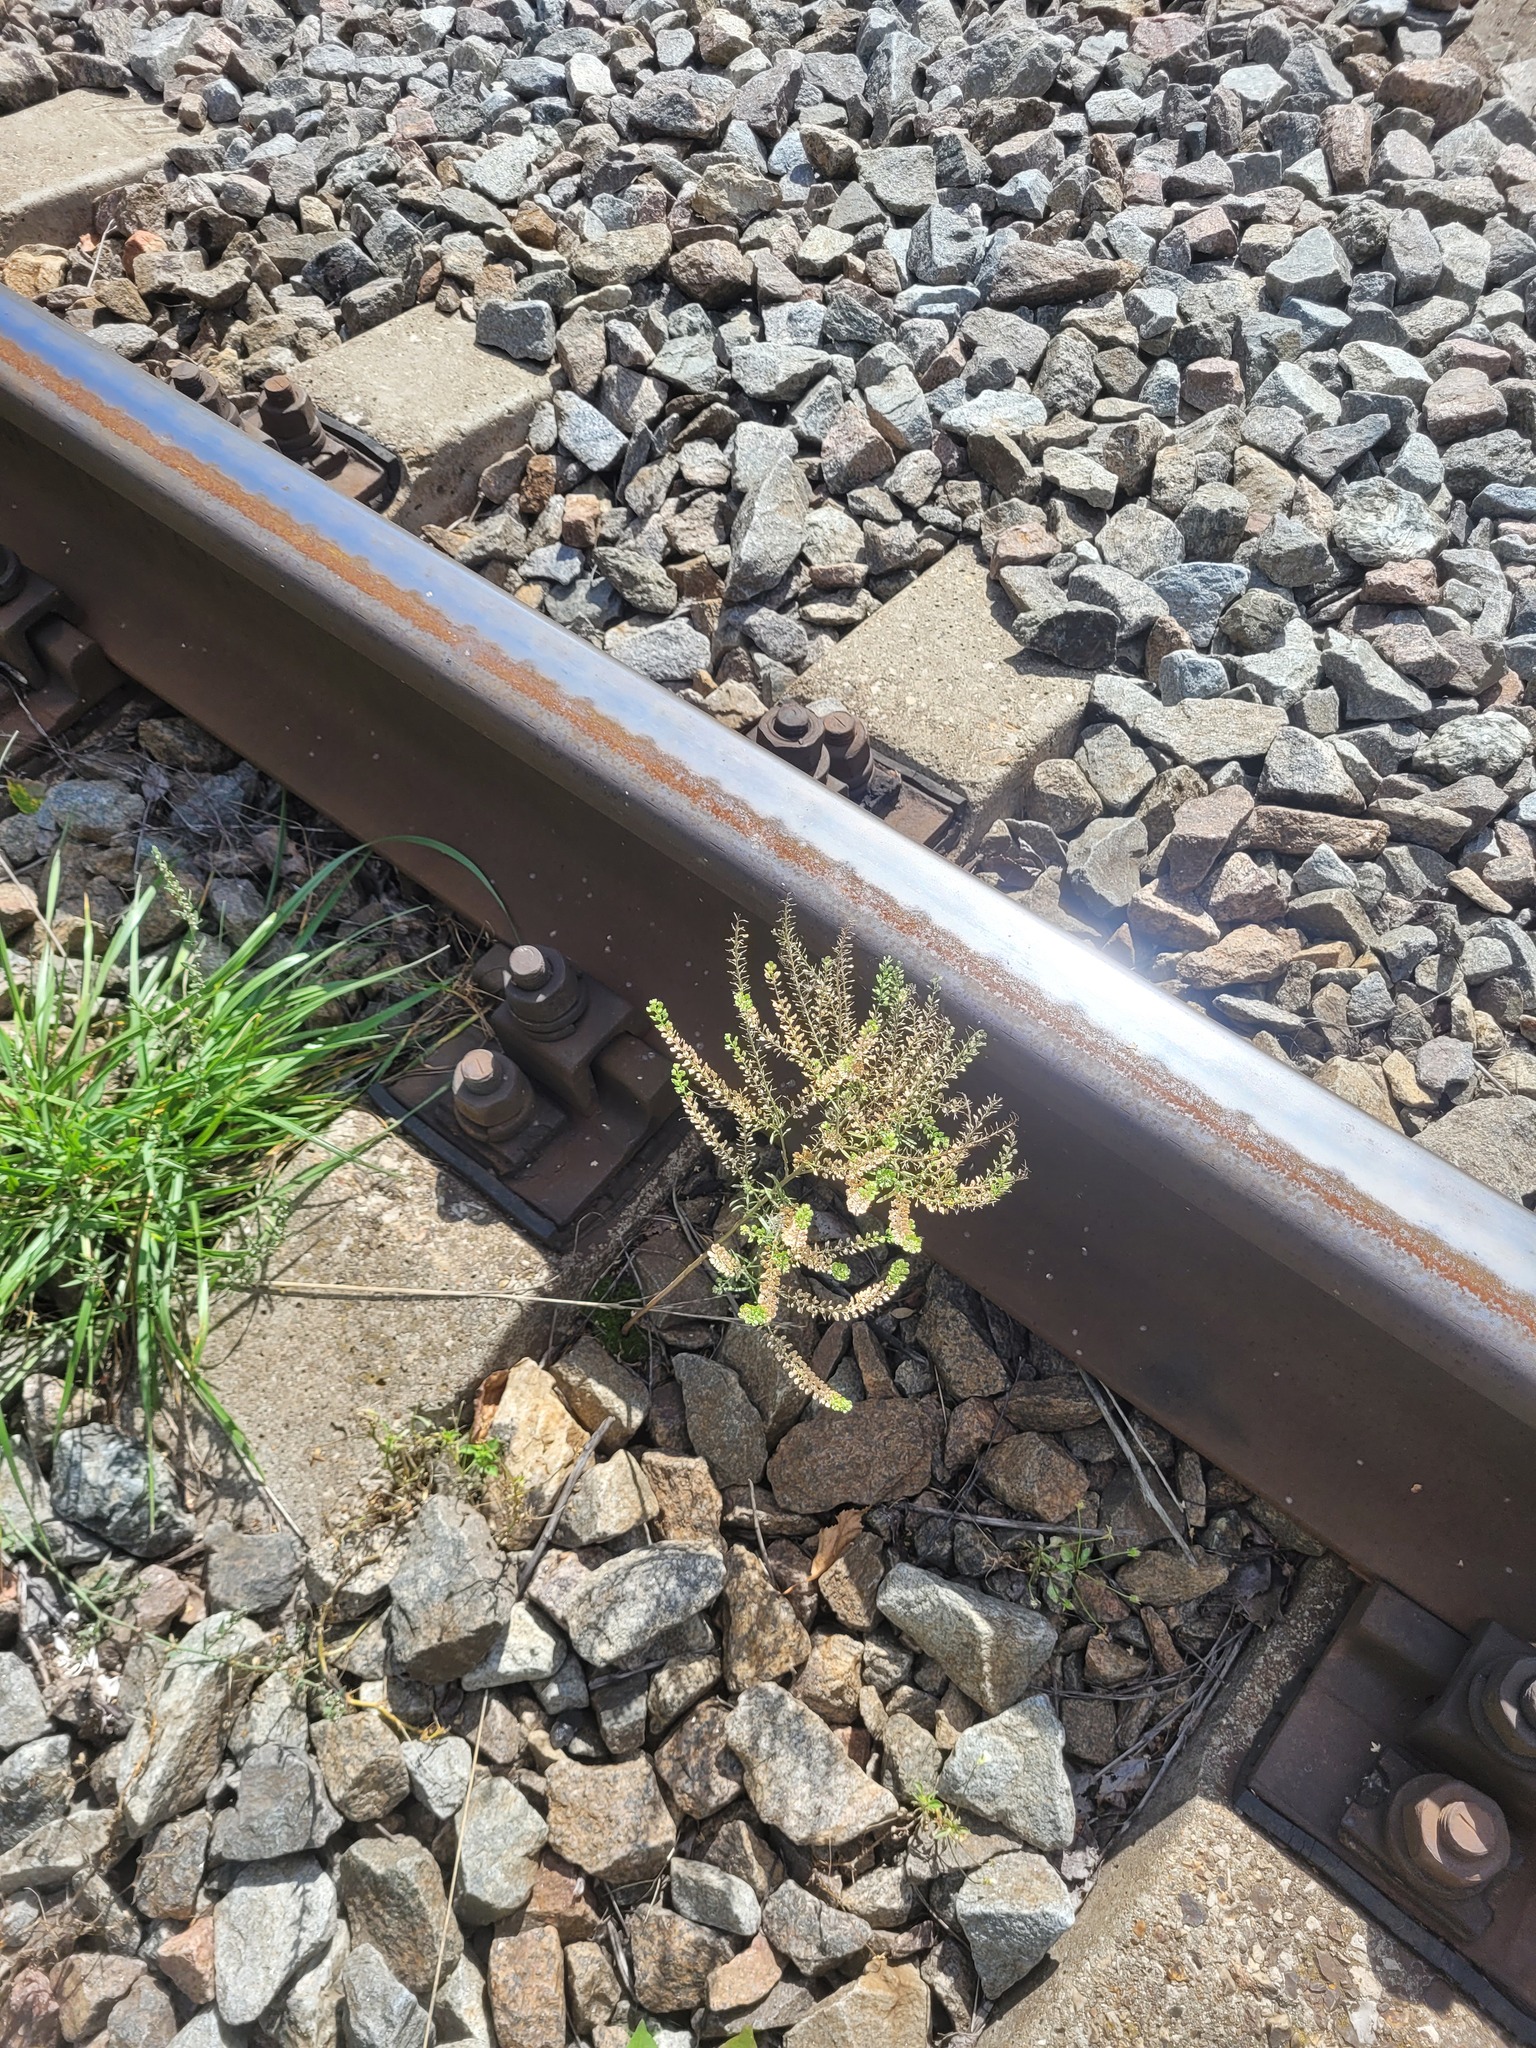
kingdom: Plantae
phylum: Tracheophyta
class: Magnoliopsida
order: Brassicales
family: Brassicaceae
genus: Lepidium
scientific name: Lepidium densiflorum
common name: Miner's pepperwort
